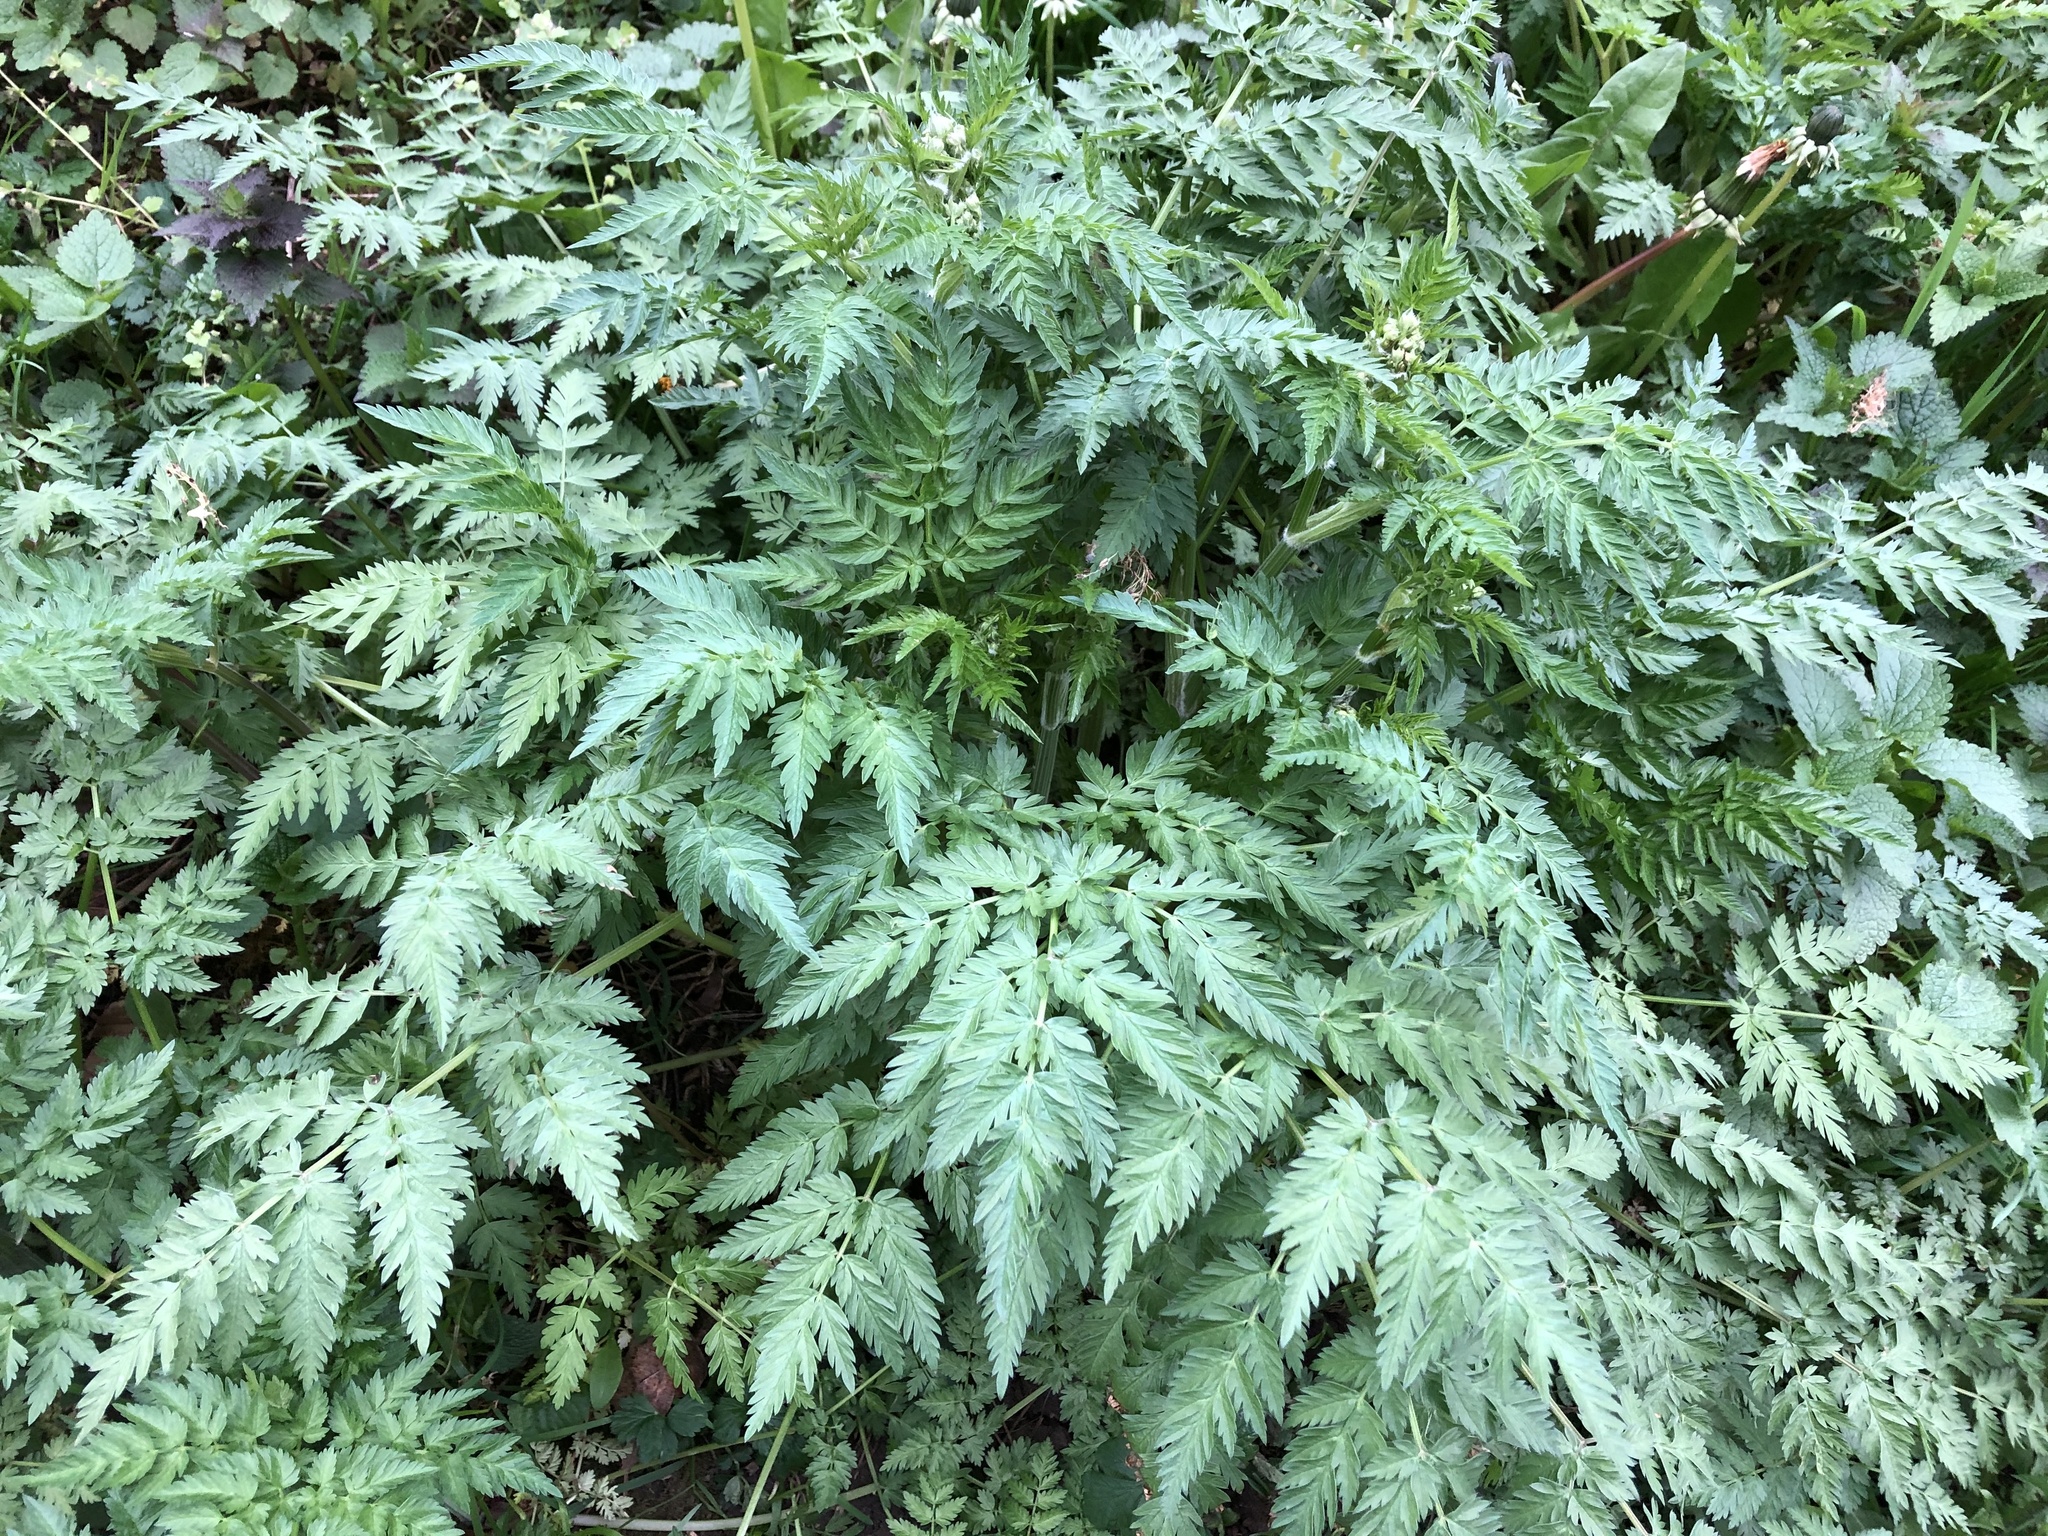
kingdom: Plantae
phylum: Tracheophyta
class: Magnoliopsida
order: Apiales
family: Apiaceae
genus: Anthriscus
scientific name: Anthriscus sylvestris
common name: Cow parsley
